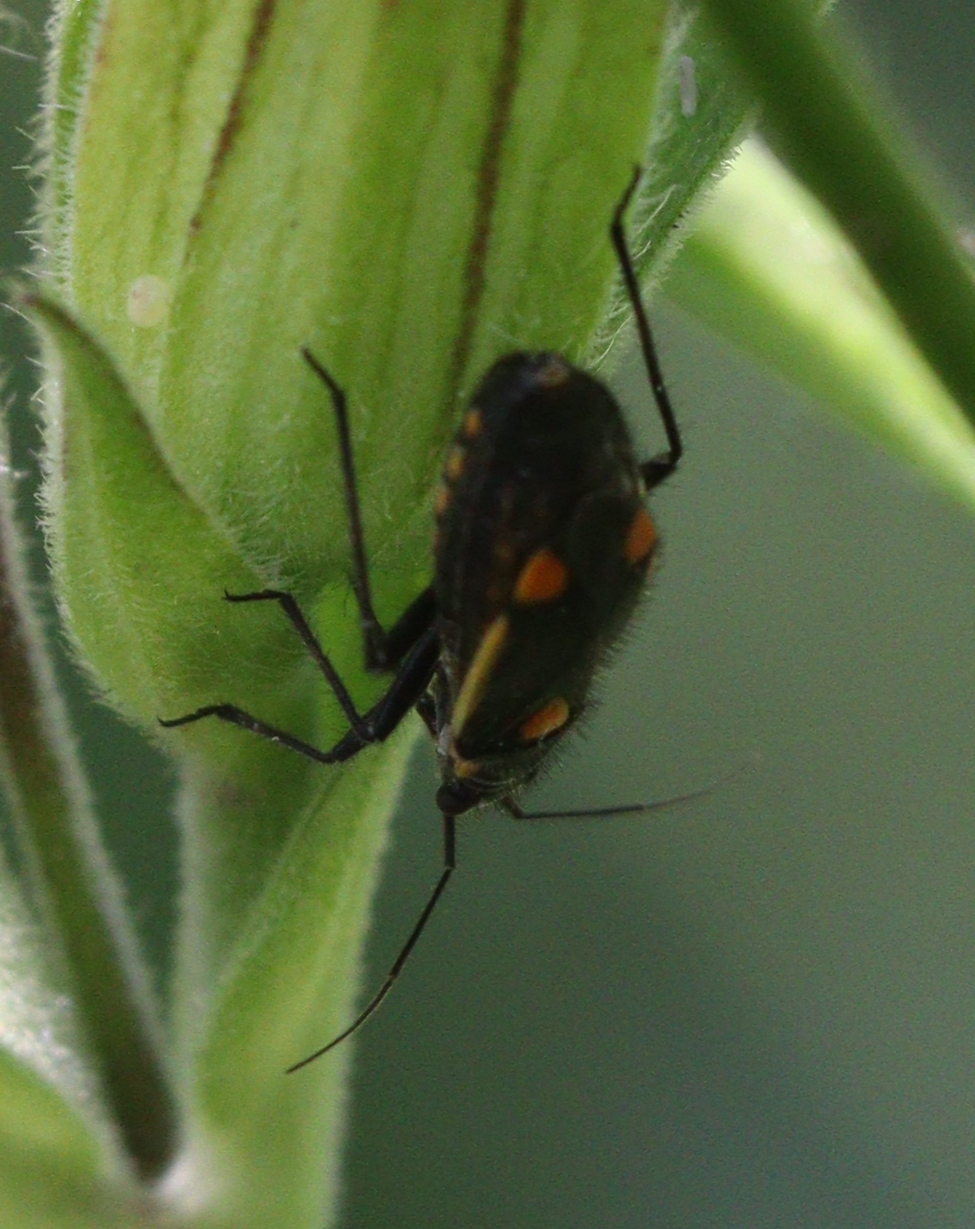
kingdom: Animalia
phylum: Arthropoda
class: Insecta
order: Hemiptera
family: Miridae
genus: Capsodes
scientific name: Capsodes gothicus
